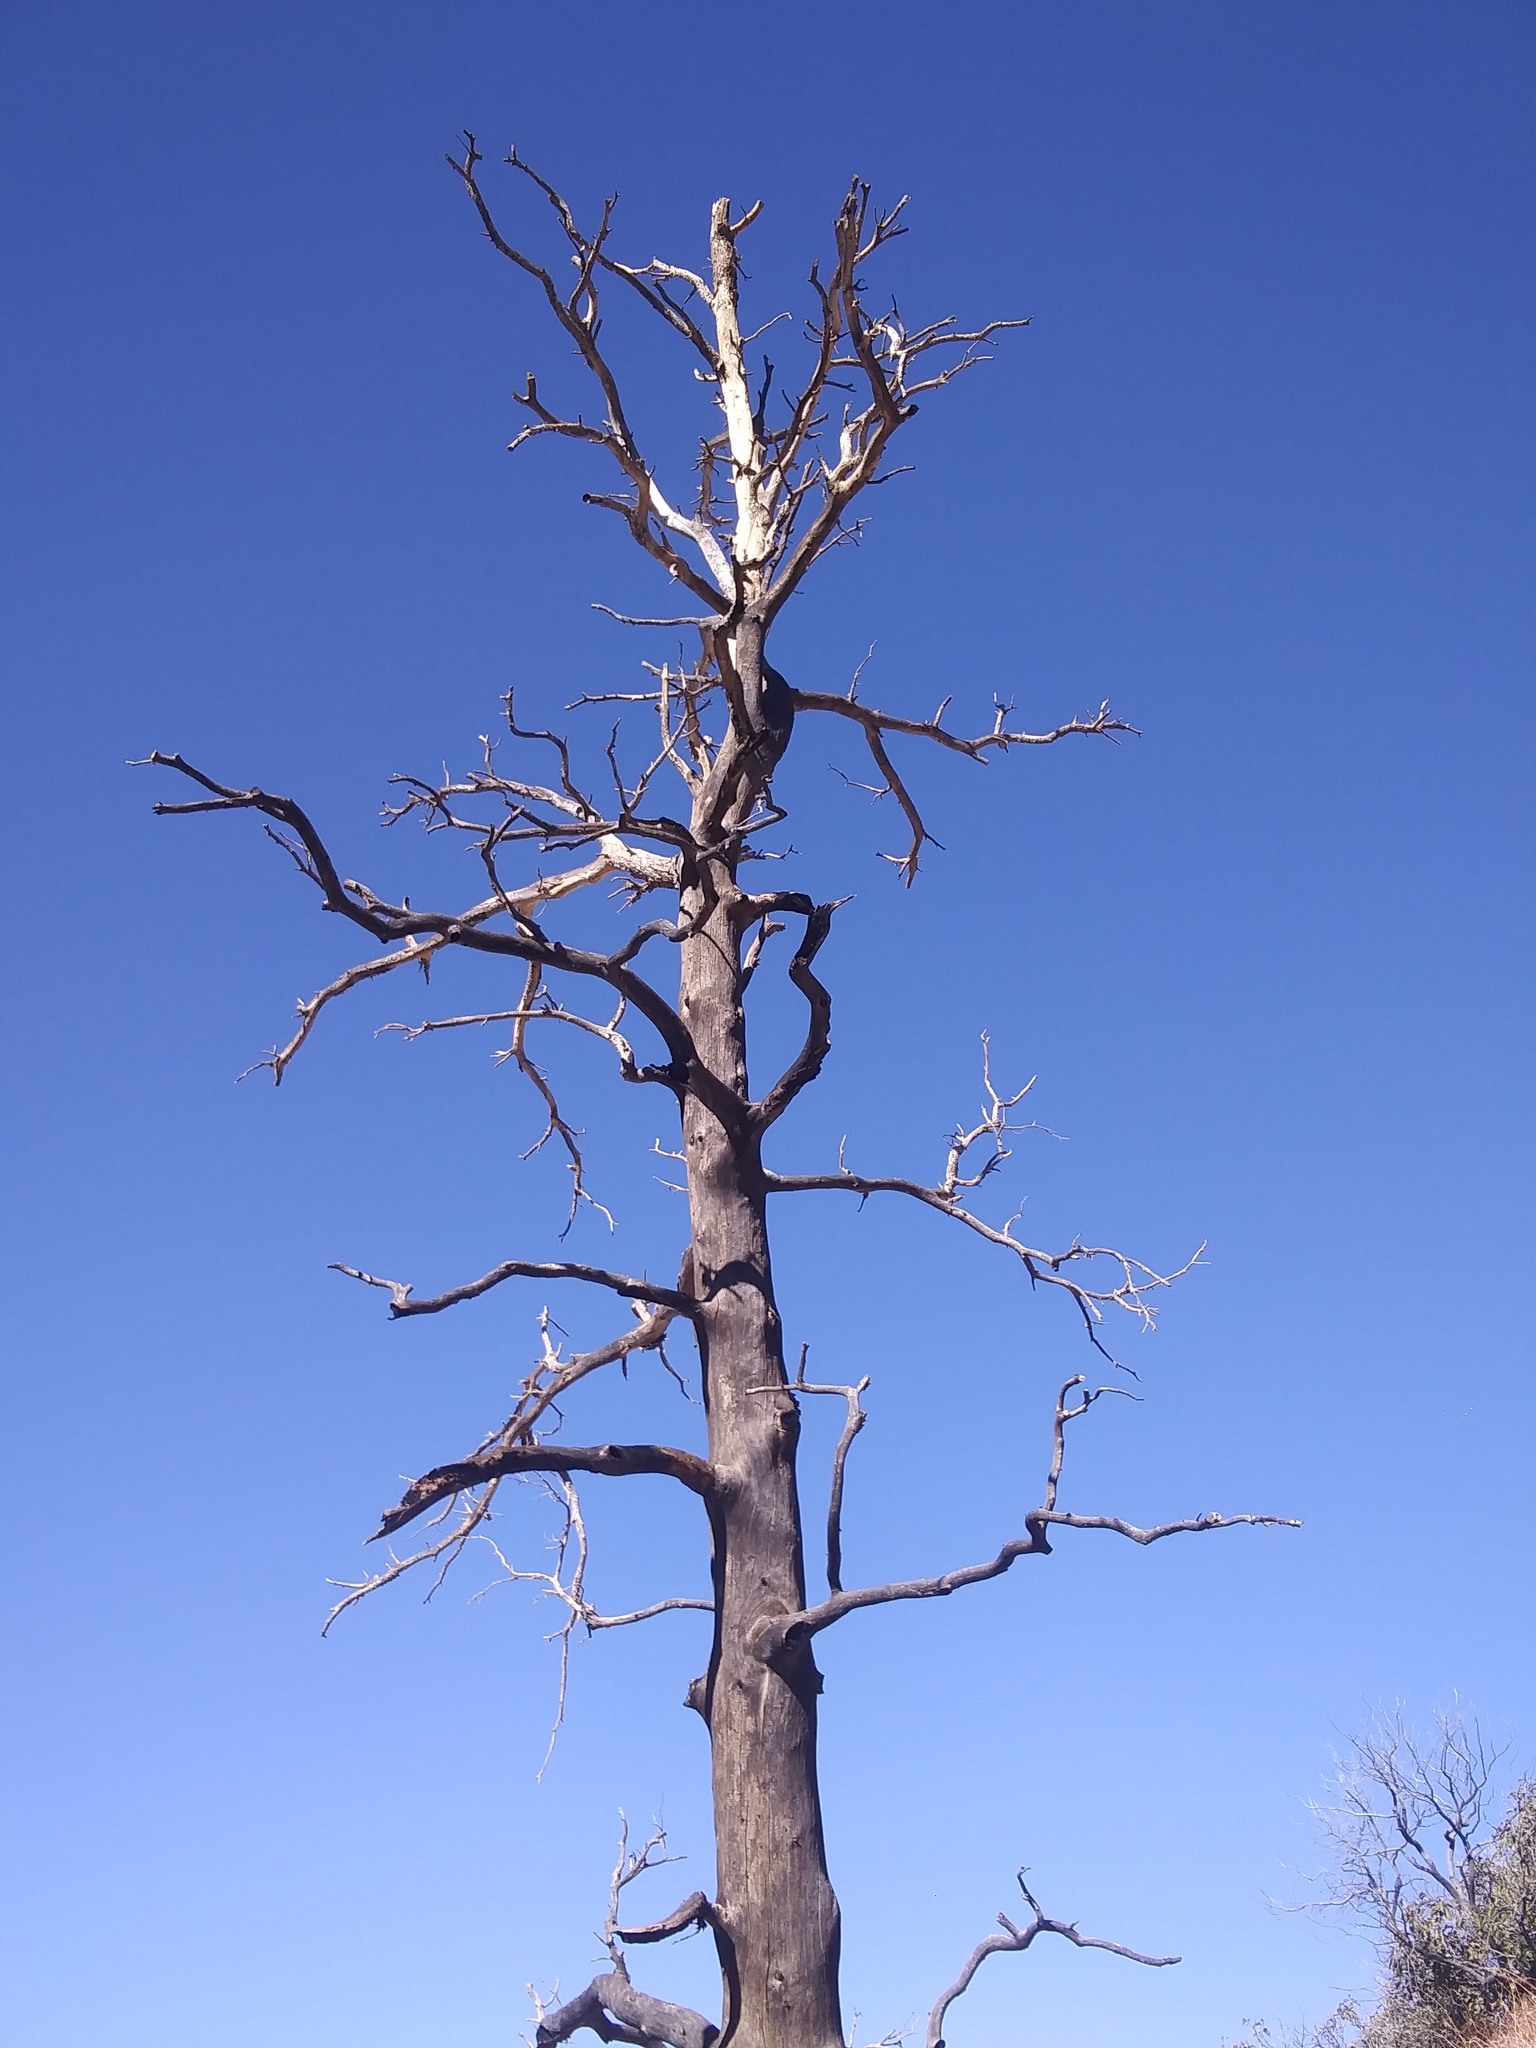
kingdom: Plantae
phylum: Tracheophyta
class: Pinopsida
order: Pinales
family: Pinaceae
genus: Pinus
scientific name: Pinus monophylla
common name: One-leaved nut pine
